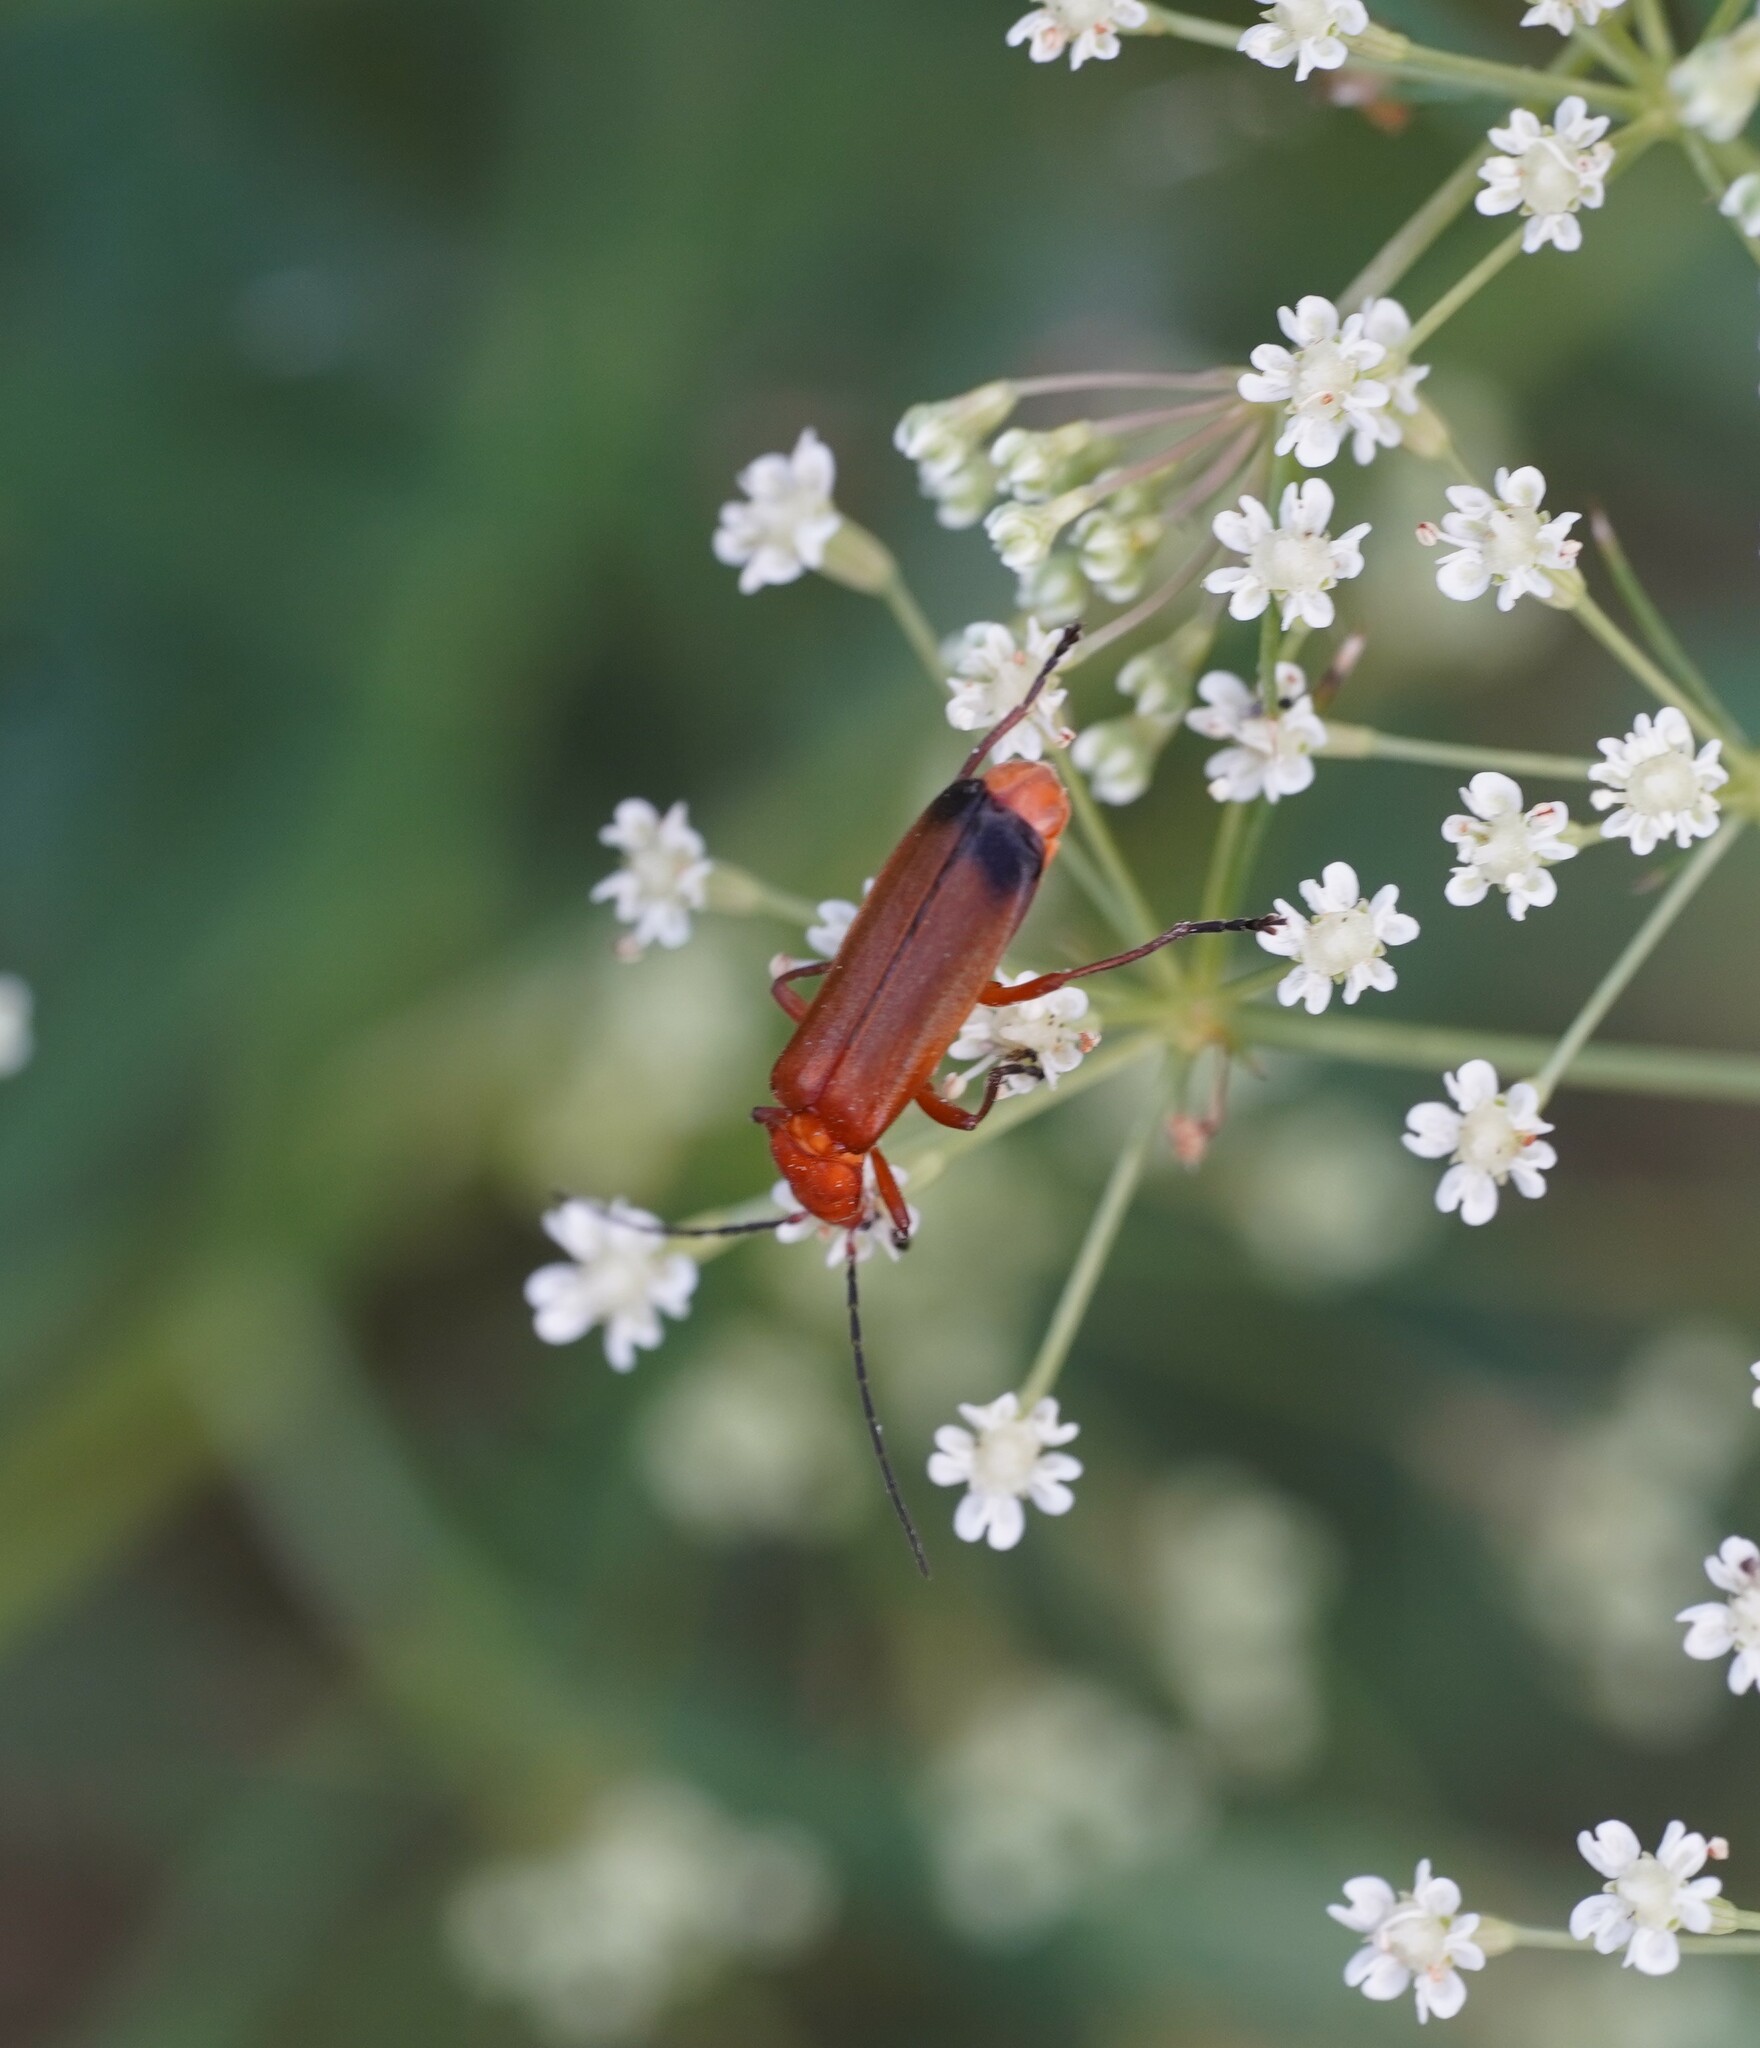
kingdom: Animalia
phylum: Arthropoda
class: Insecta
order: Coleoptera
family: Cantharidae
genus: Rhagonycha
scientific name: Rhagonycha fulva
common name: Common red soldier beetle
